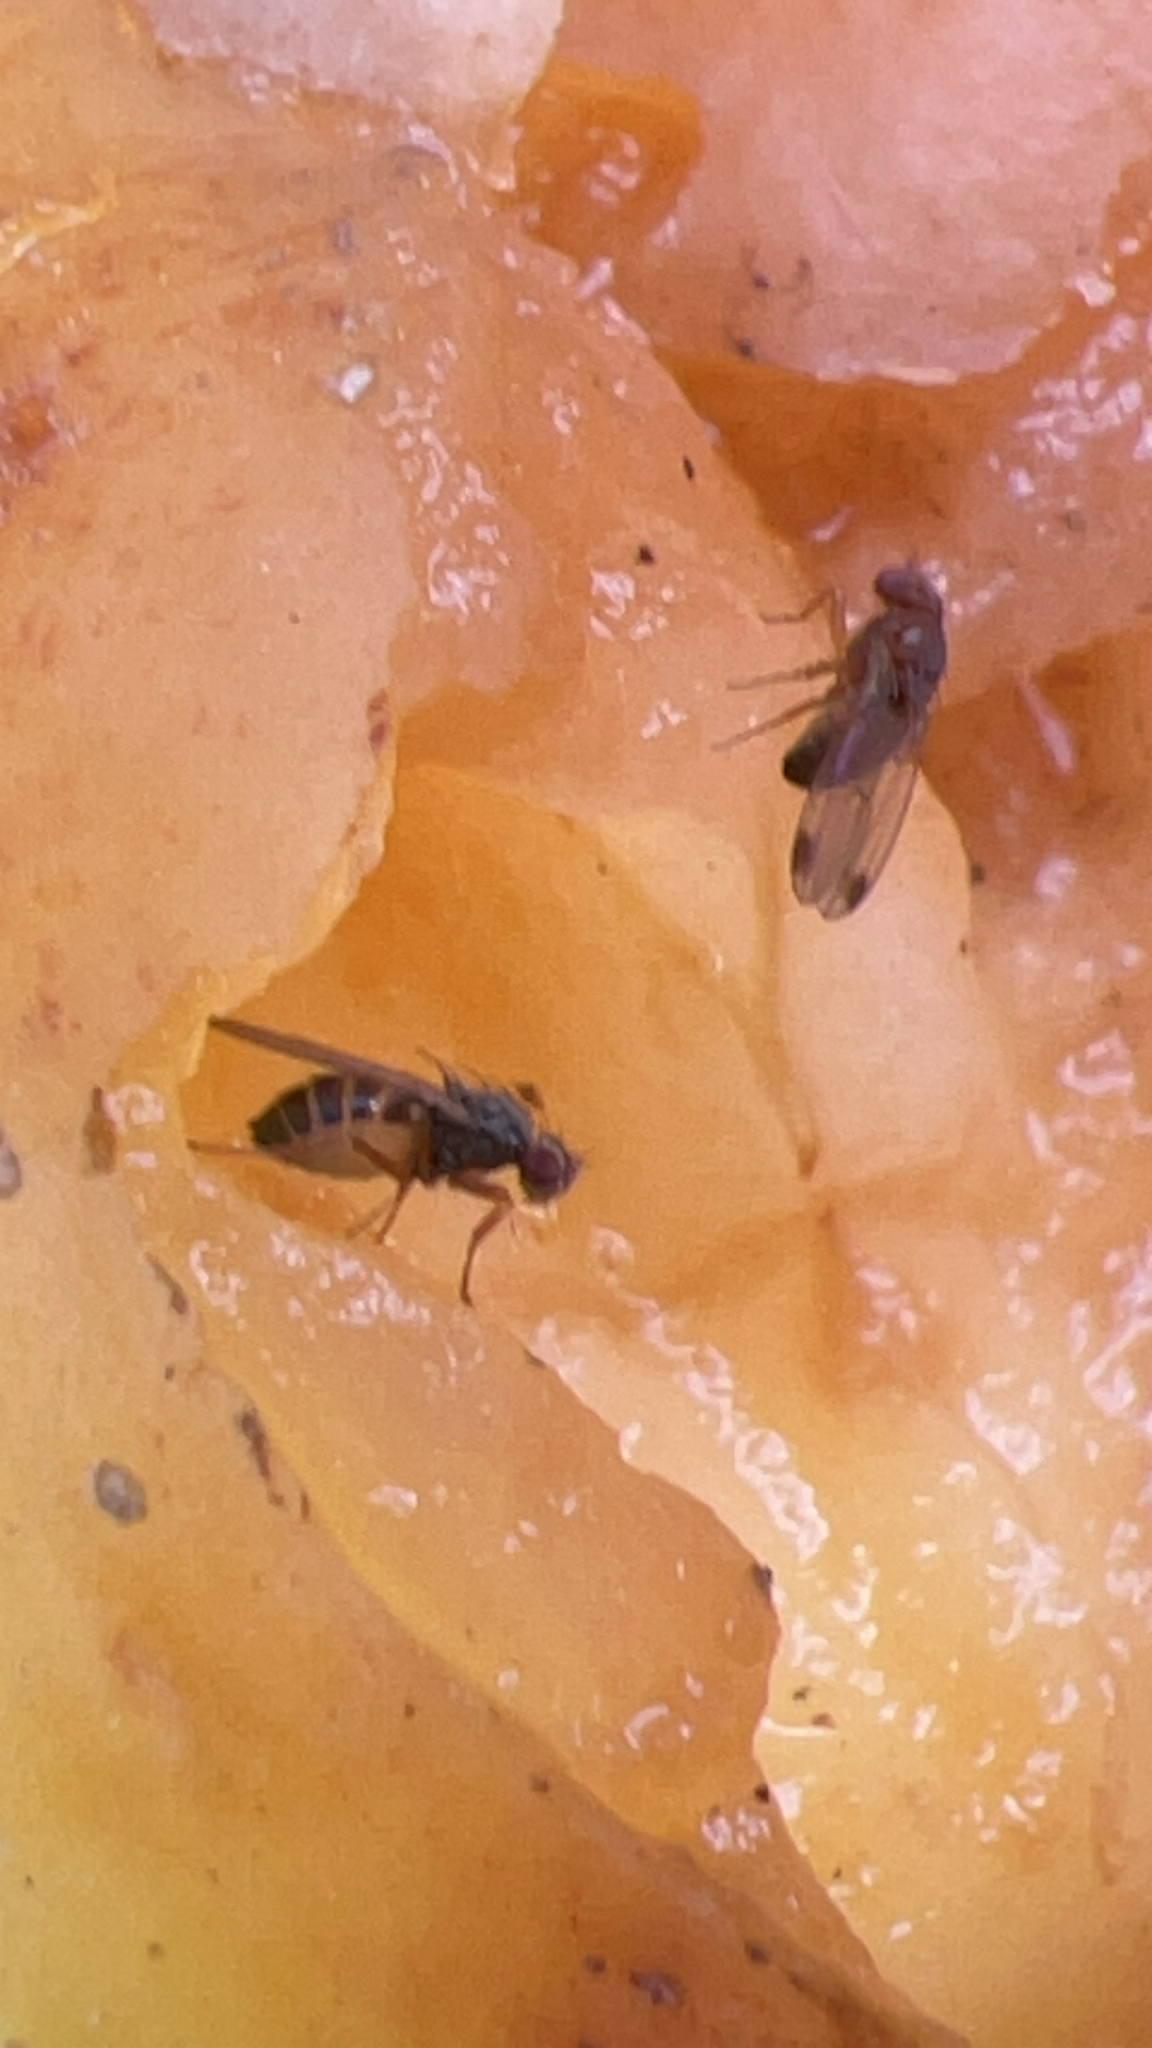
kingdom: Animalia
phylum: Arthropoda
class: Insecta
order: Diptera
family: Drosophilidae
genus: Drosophila
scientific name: Drosophila suzukii
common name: Spotted-wing drosophila
